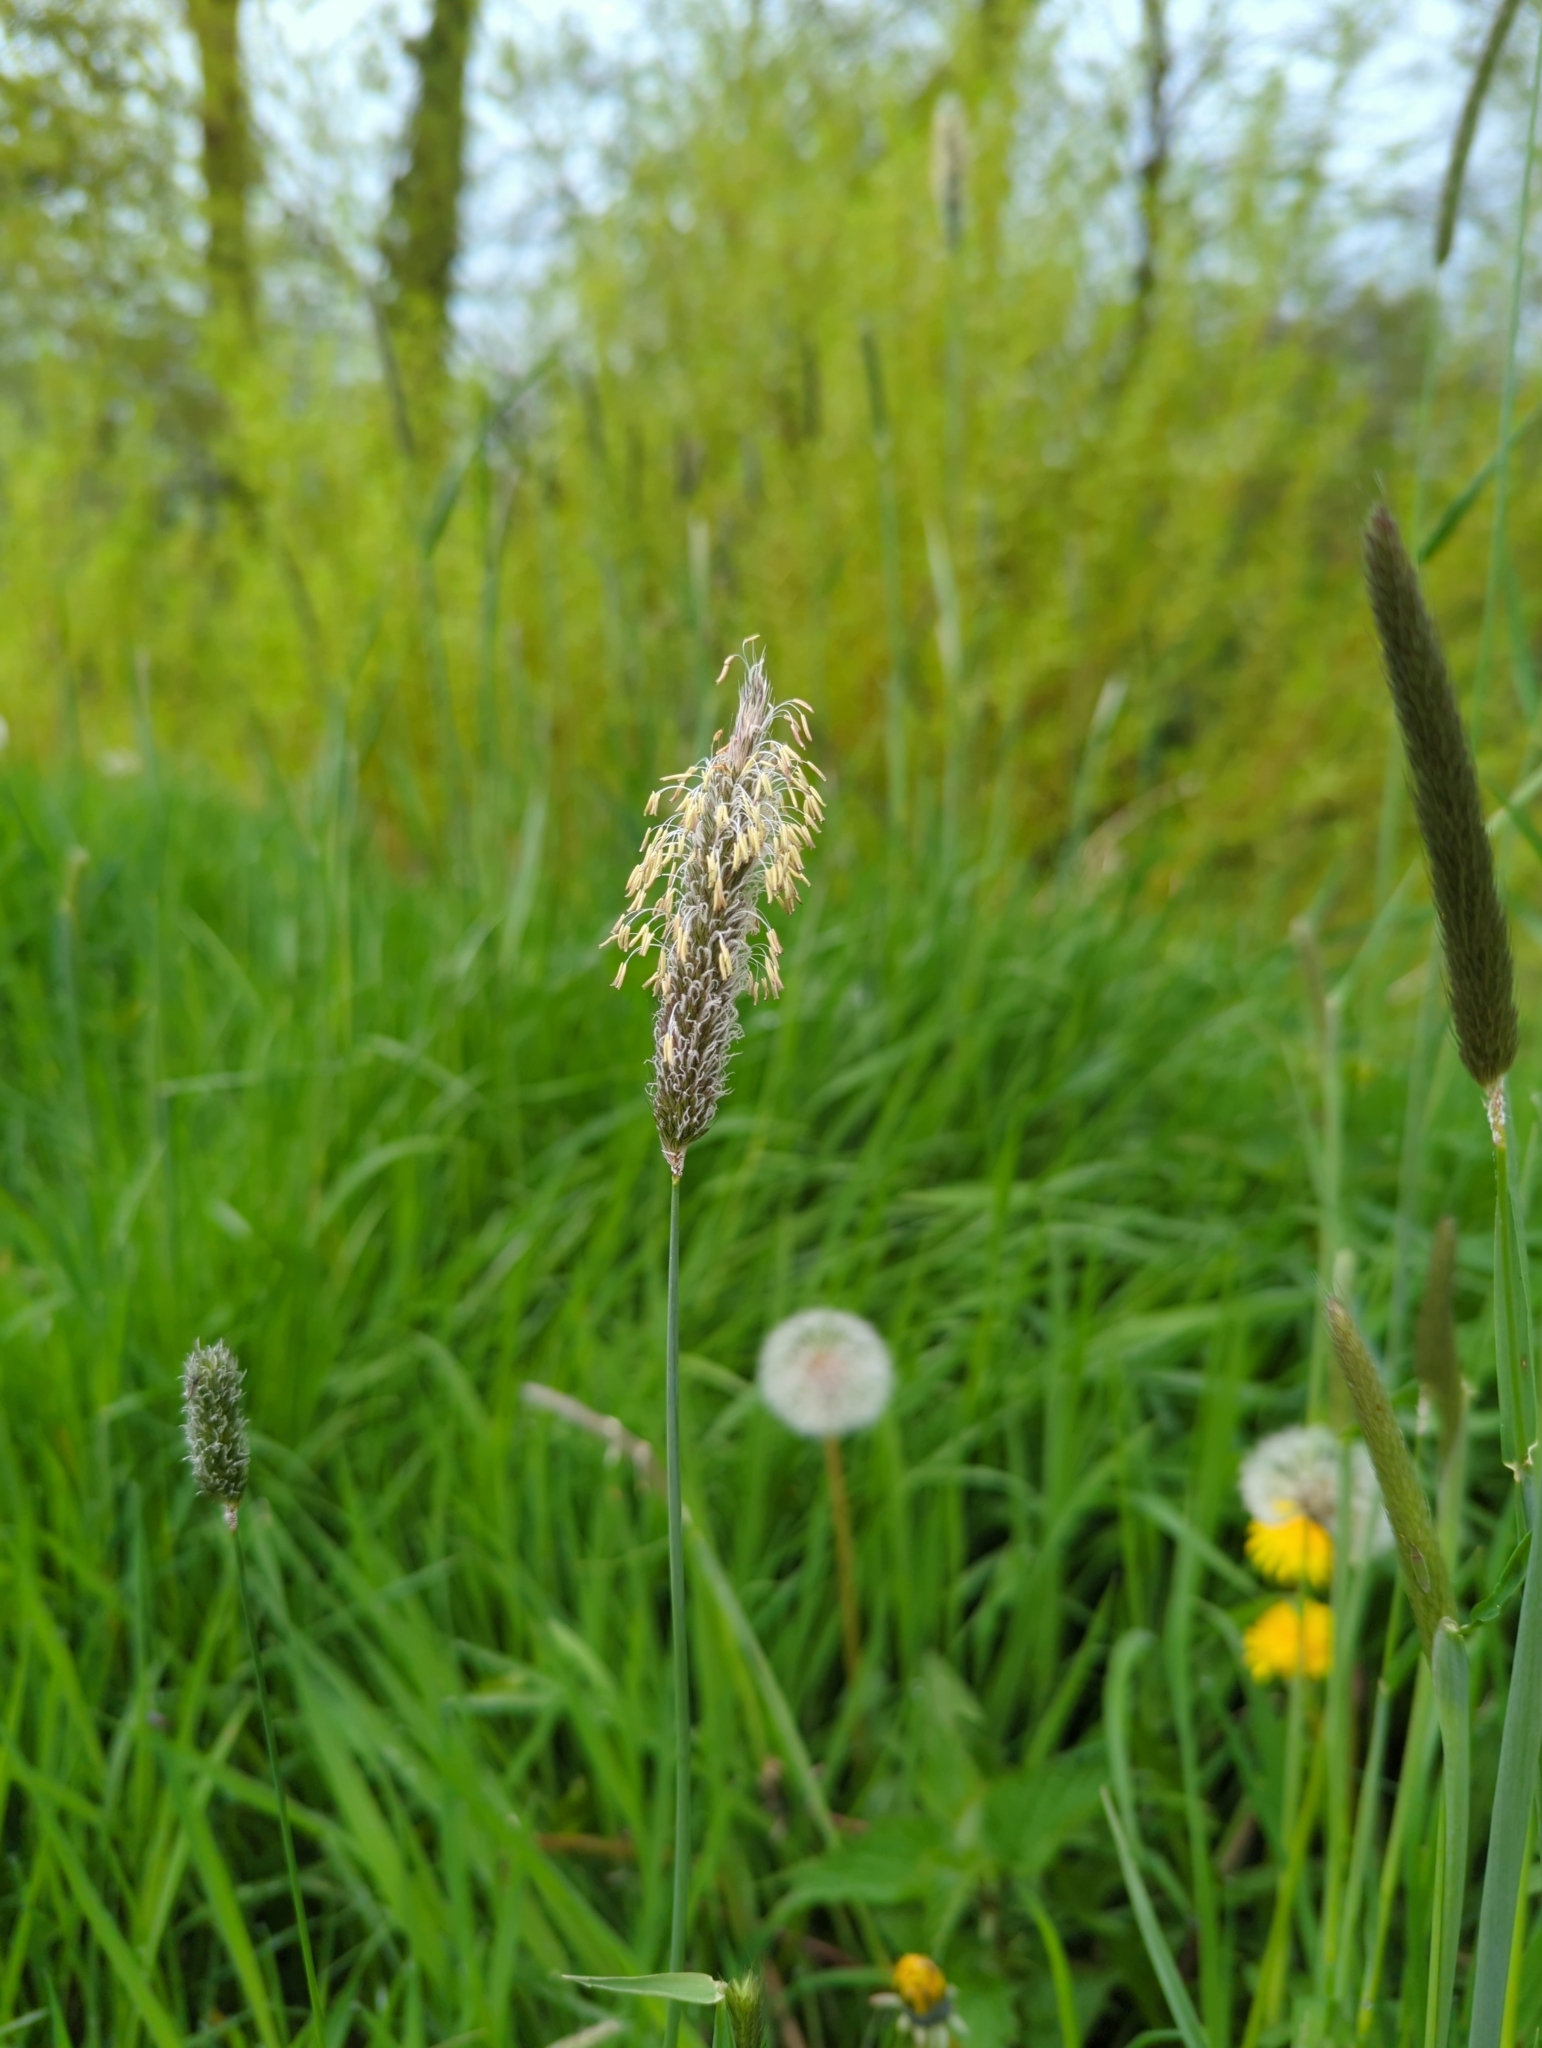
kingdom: Plantae
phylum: Tracheophyta
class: Liliopsida
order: Poales
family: Poaceae
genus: Alopecurus
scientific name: Alopecurus pratensis
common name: Meadow foxtail
